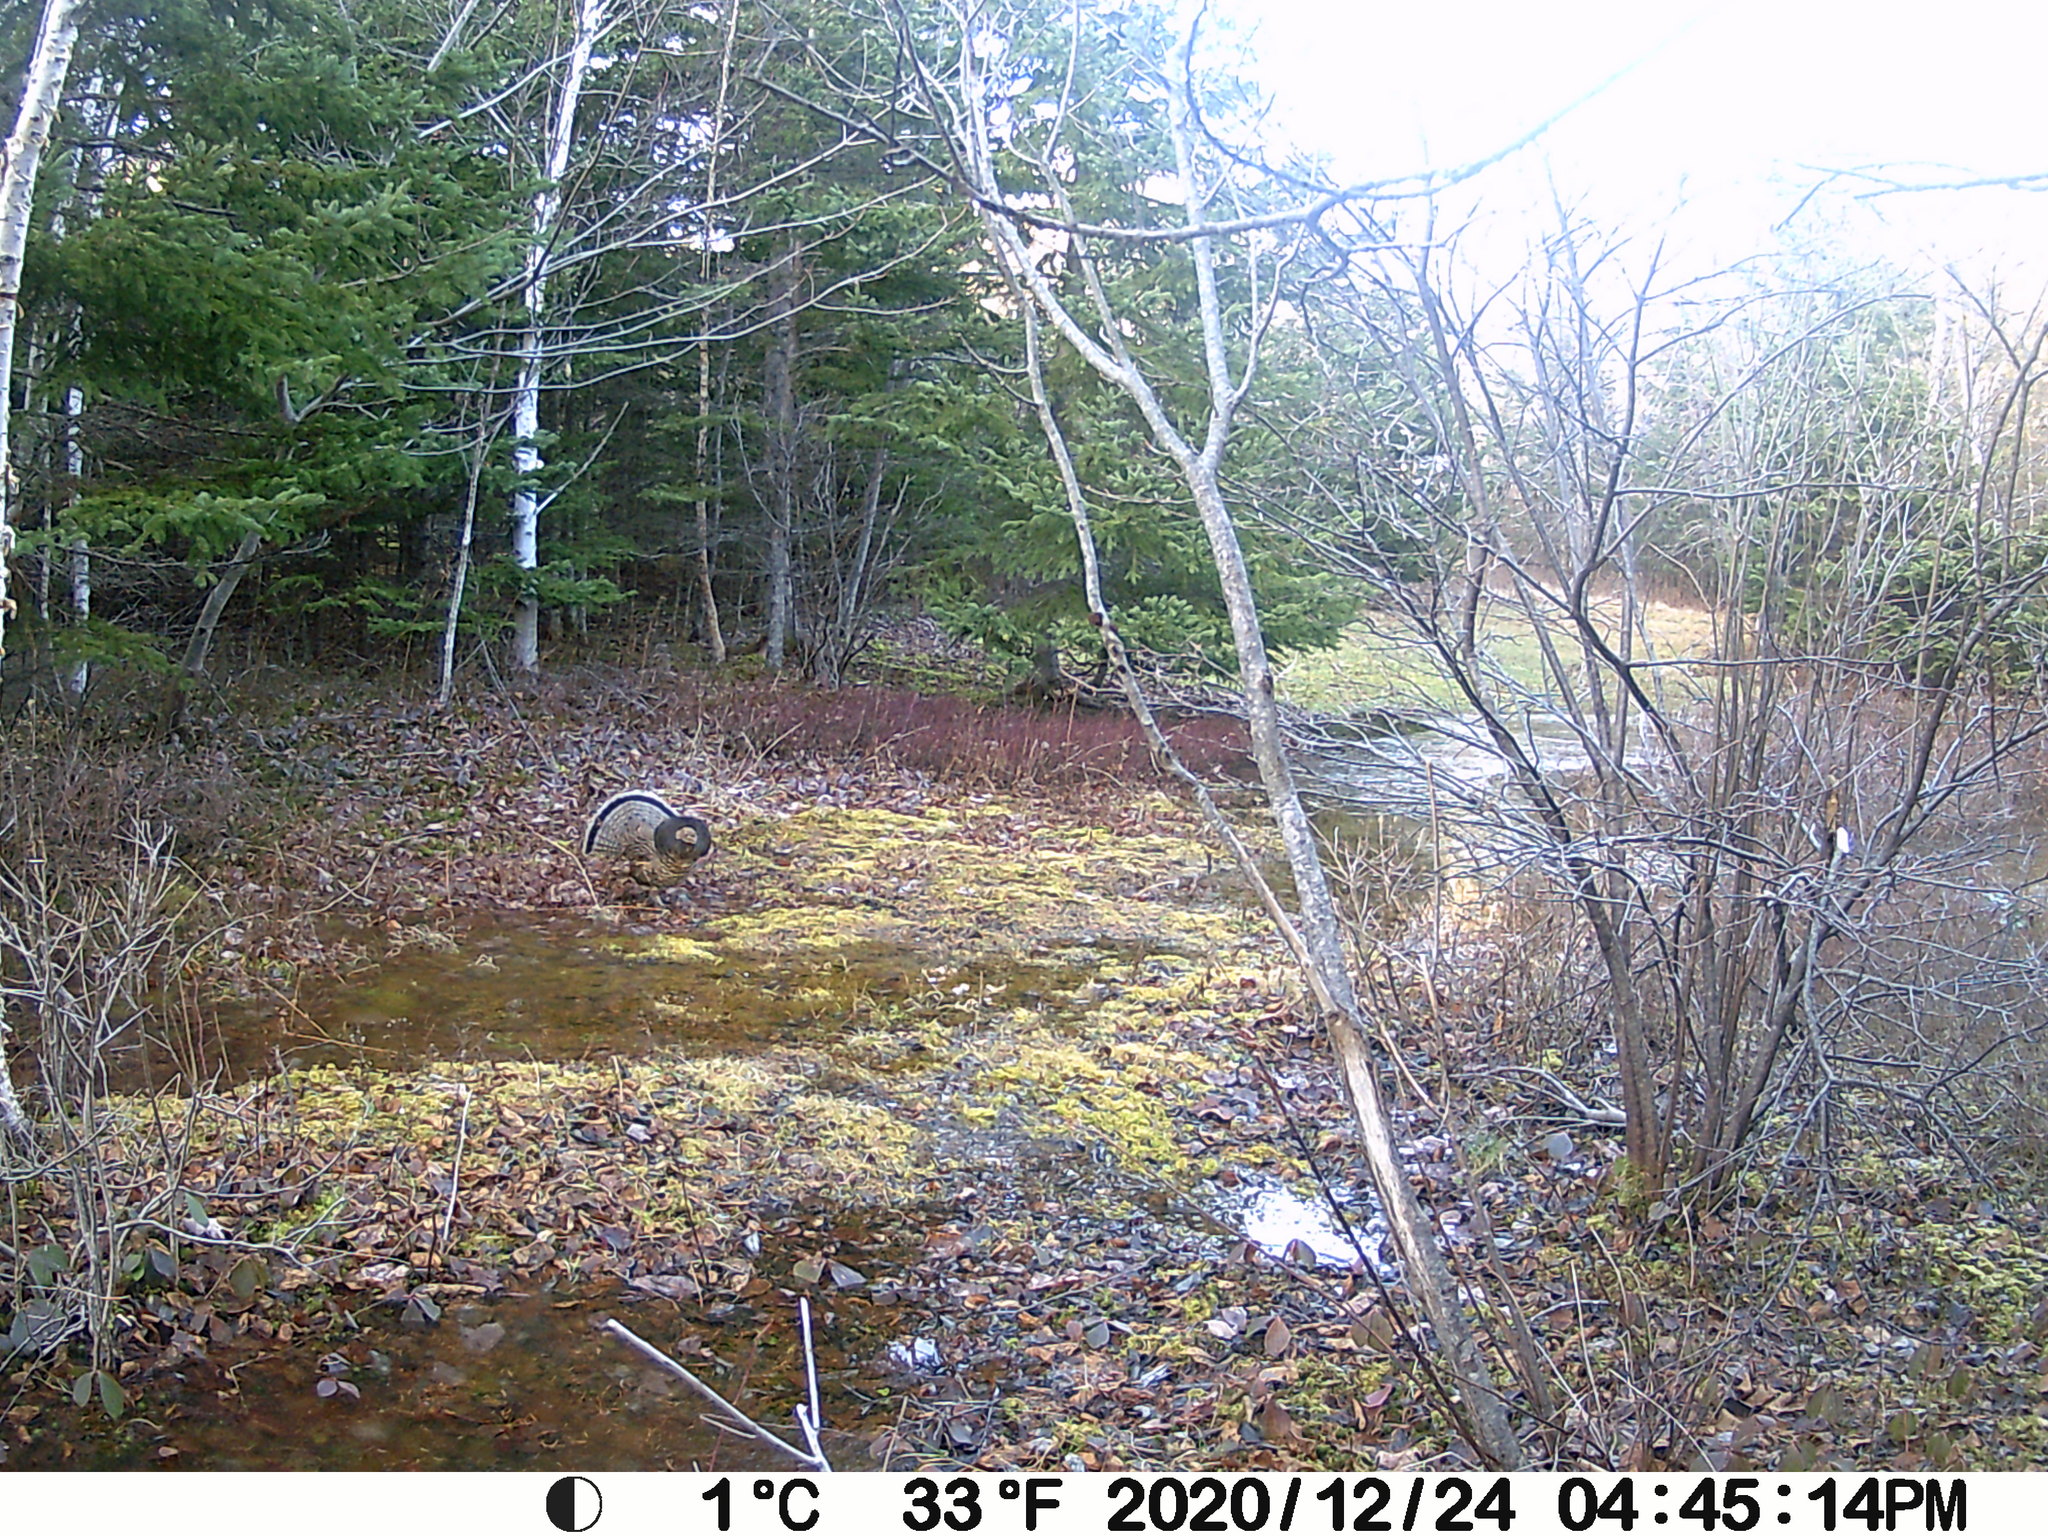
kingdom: Animalia
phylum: Chordata
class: Aves
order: Galliformes
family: Phasianidae
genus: Bonasa
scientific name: Bonasa umbellus
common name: Ruffed grouse
